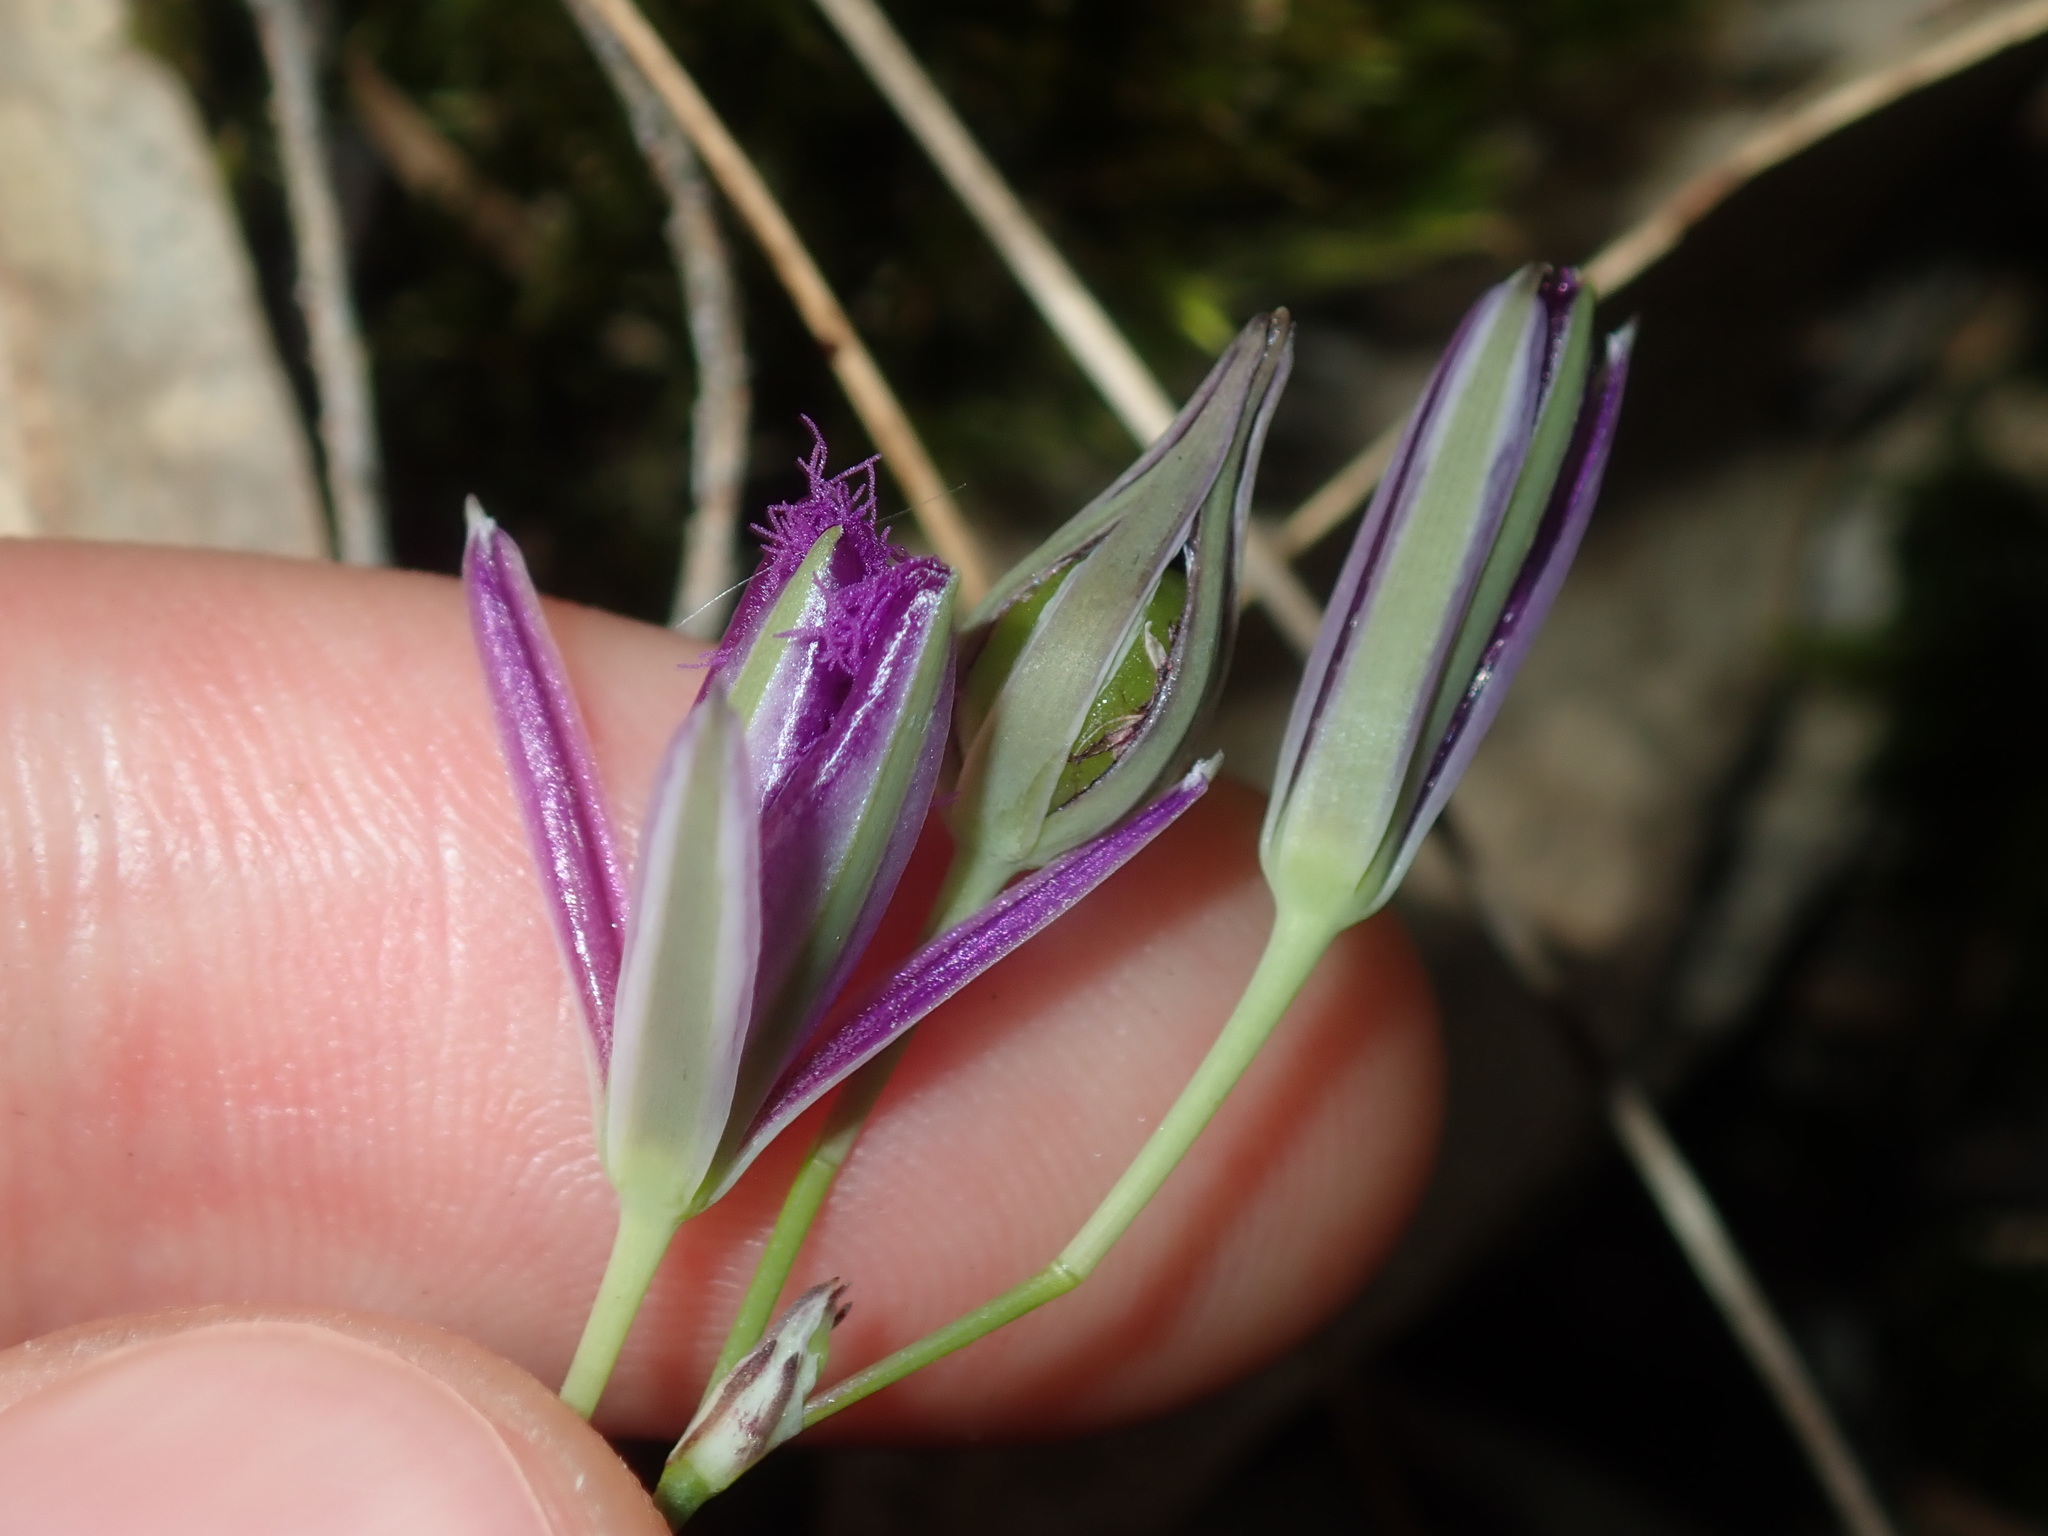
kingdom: Plantae
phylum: Tracheophyta
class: Liliopsida
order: Asparagales
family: Asparagaceae
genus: Thysanotus
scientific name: Thysanotus tuberosus
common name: Common fringed-lily
